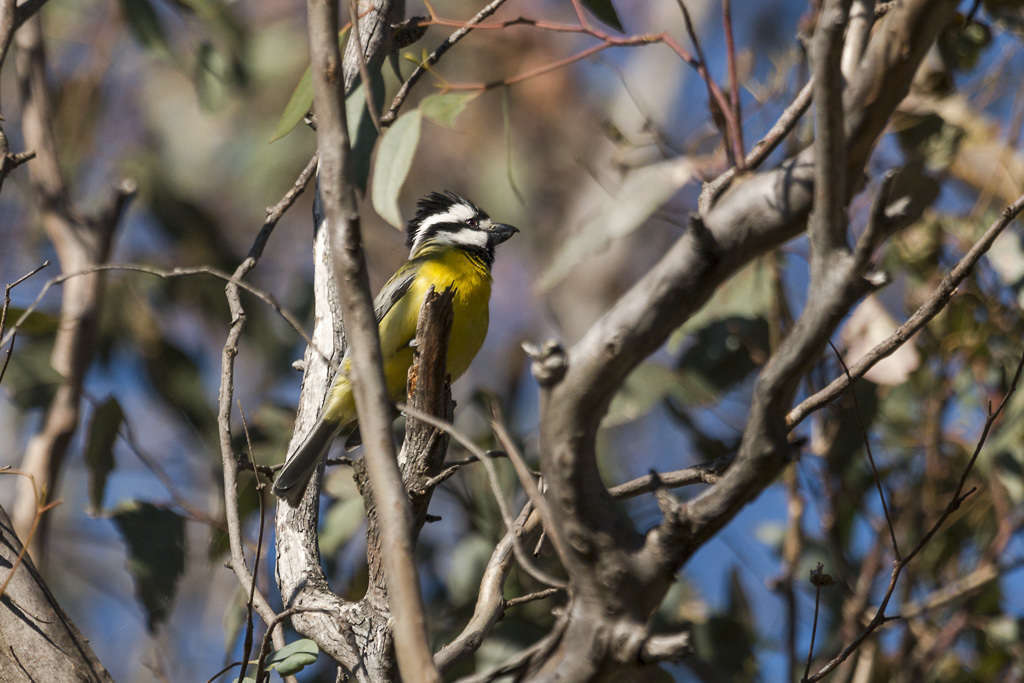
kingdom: Animalia
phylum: Chordata
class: Aves
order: Passeriformes
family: Pachycephalidae
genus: Falcunculus
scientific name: Falcunculus frontatus
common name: Crested shriketit
